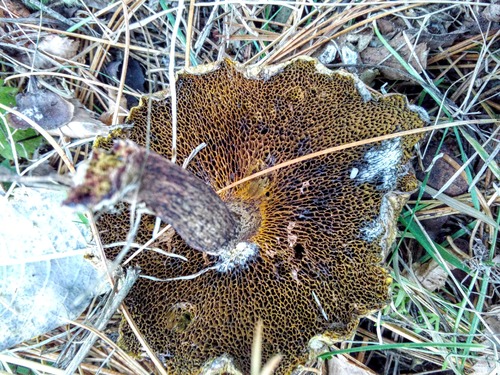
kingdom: Fungi
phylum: Basidiomycota
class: Agaricomycetes
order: Boletales
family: Suillaceae
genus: Suillus
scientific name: Suillus americanus
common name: Chicken fat mushroom
